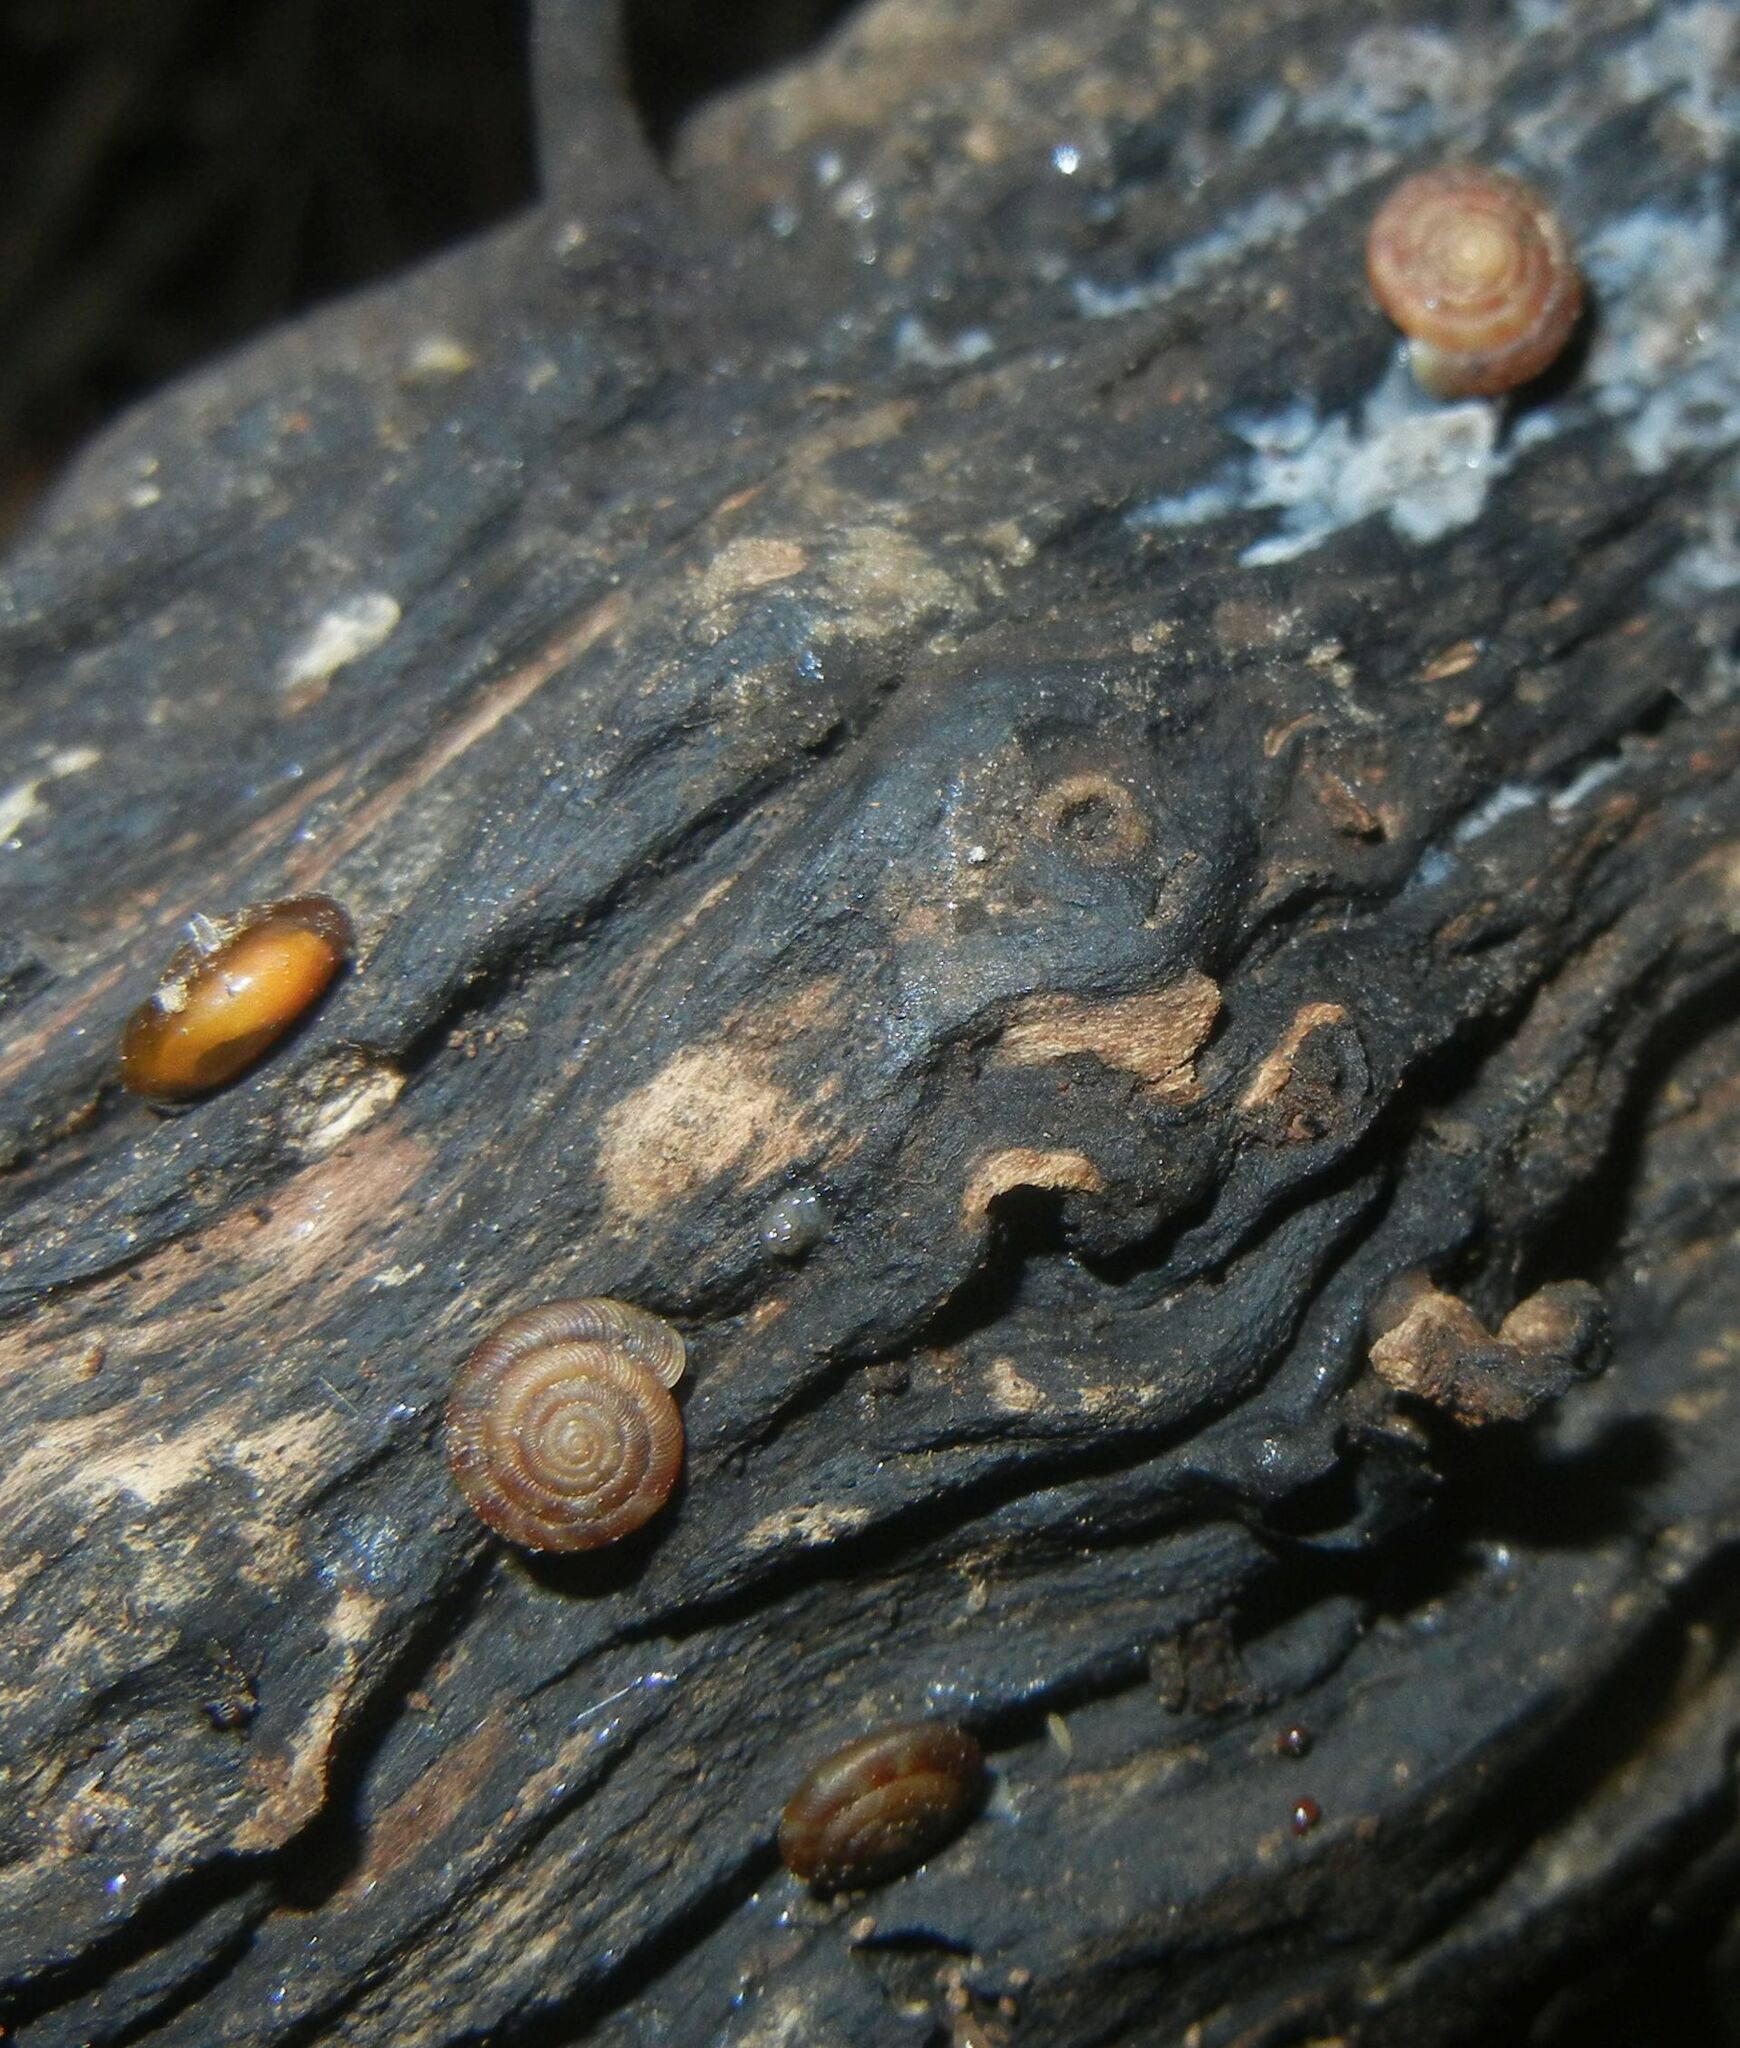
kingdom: Animalia
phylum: Mollusca
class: Gastropoda
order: Stylommatophora
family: Discidae
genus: Discus
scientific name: Discus rotundatus
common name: Rounded snail
